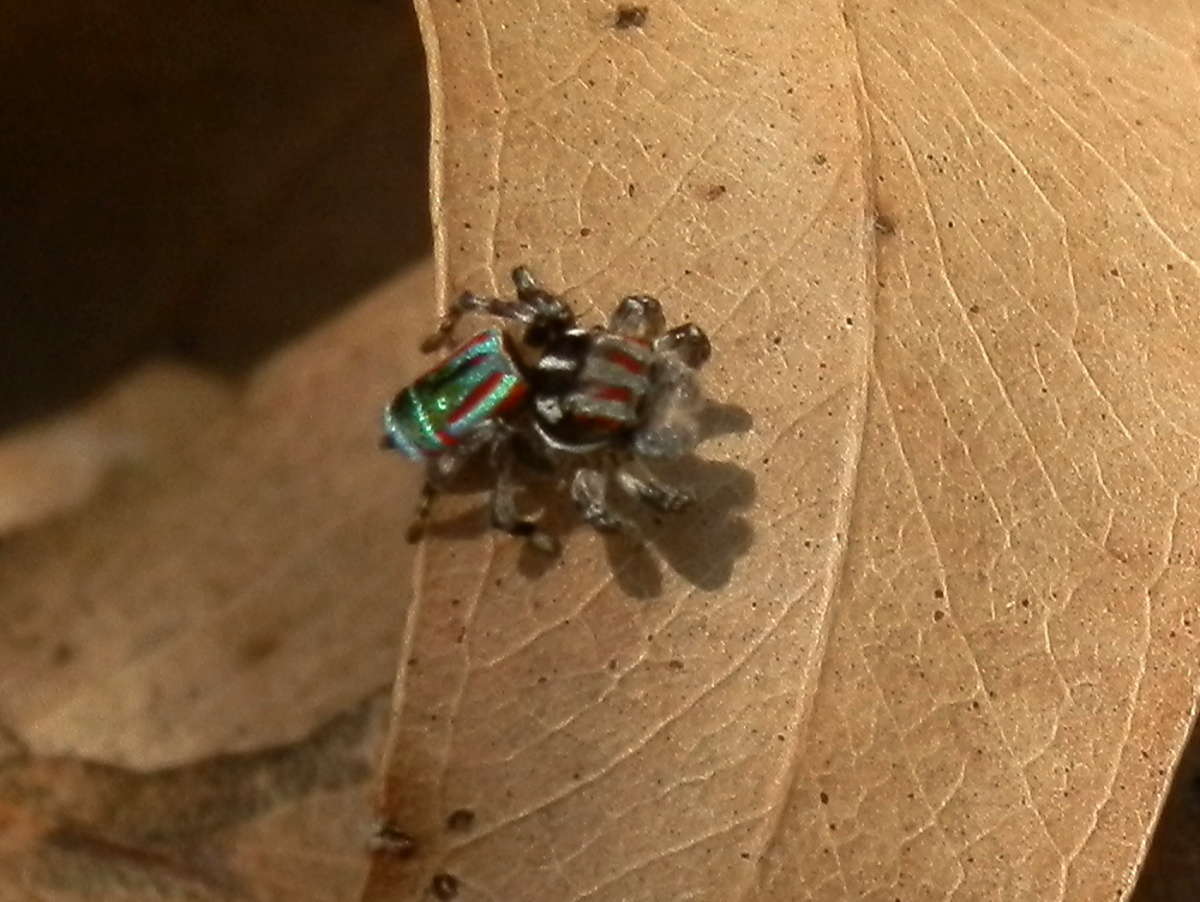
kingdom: Animalia
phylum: Arthropoda
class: Arachnida
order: Araneae
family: Salticidae
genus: Maratus
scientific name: Maratus volans
